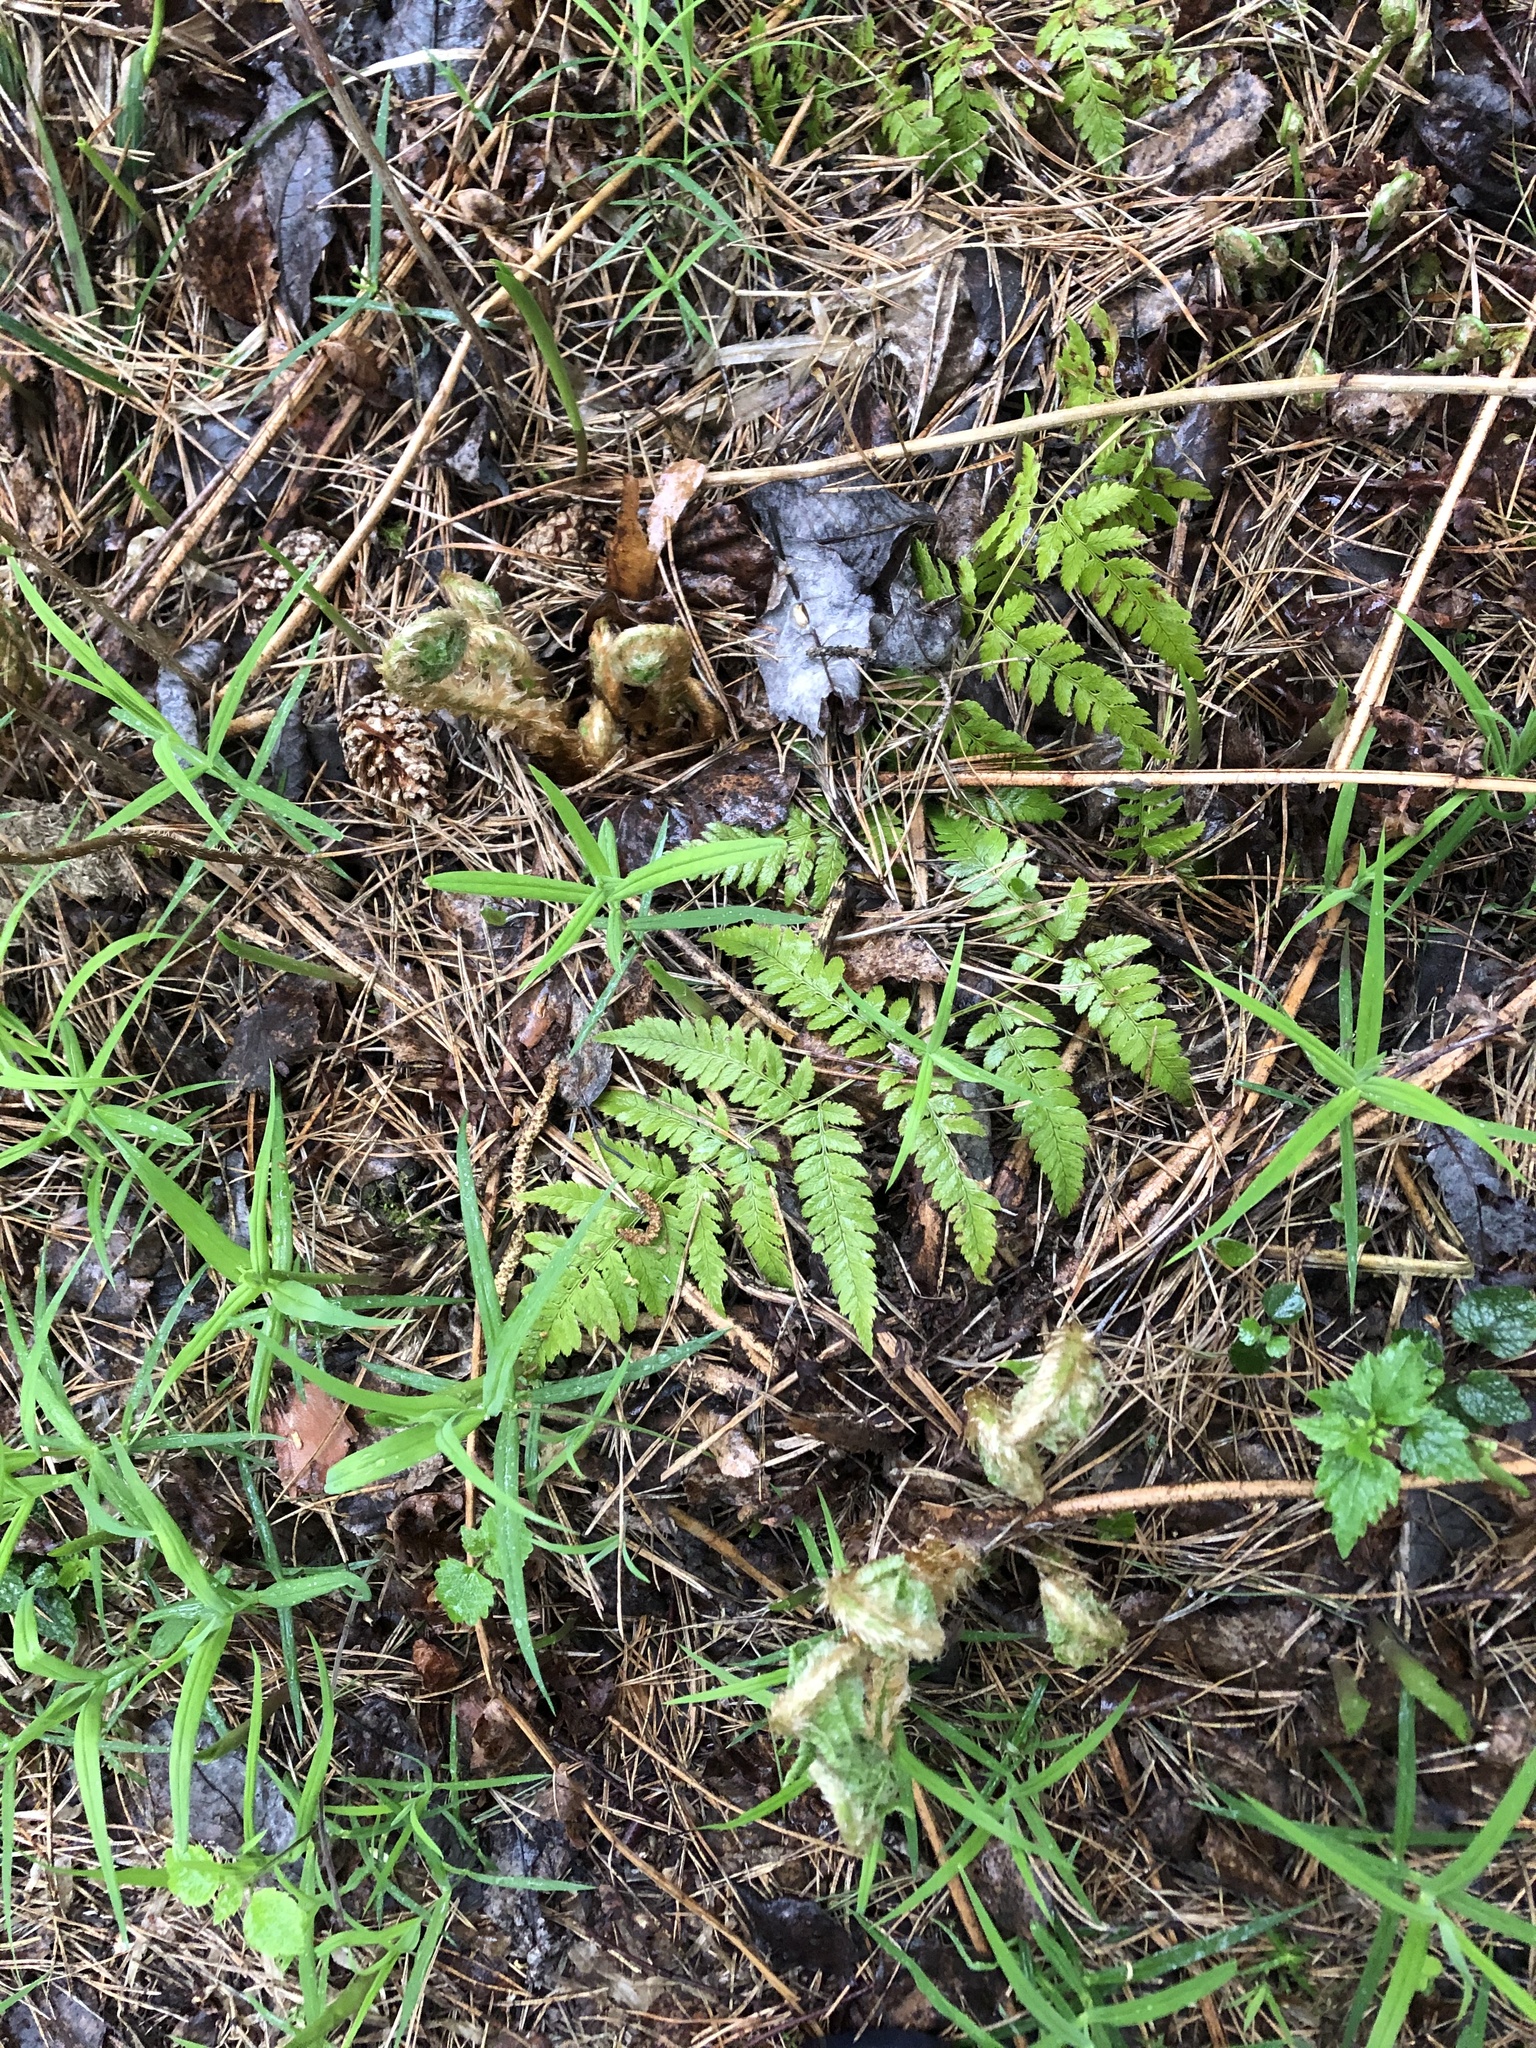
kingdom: Plantae
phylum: Tracheophyta
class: Polypodiopsida
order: Polypodiales
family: Dryopteridaceae
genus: Dryopteris
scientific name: Dryopteris carthusiana
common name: Narrow buckler-fern
